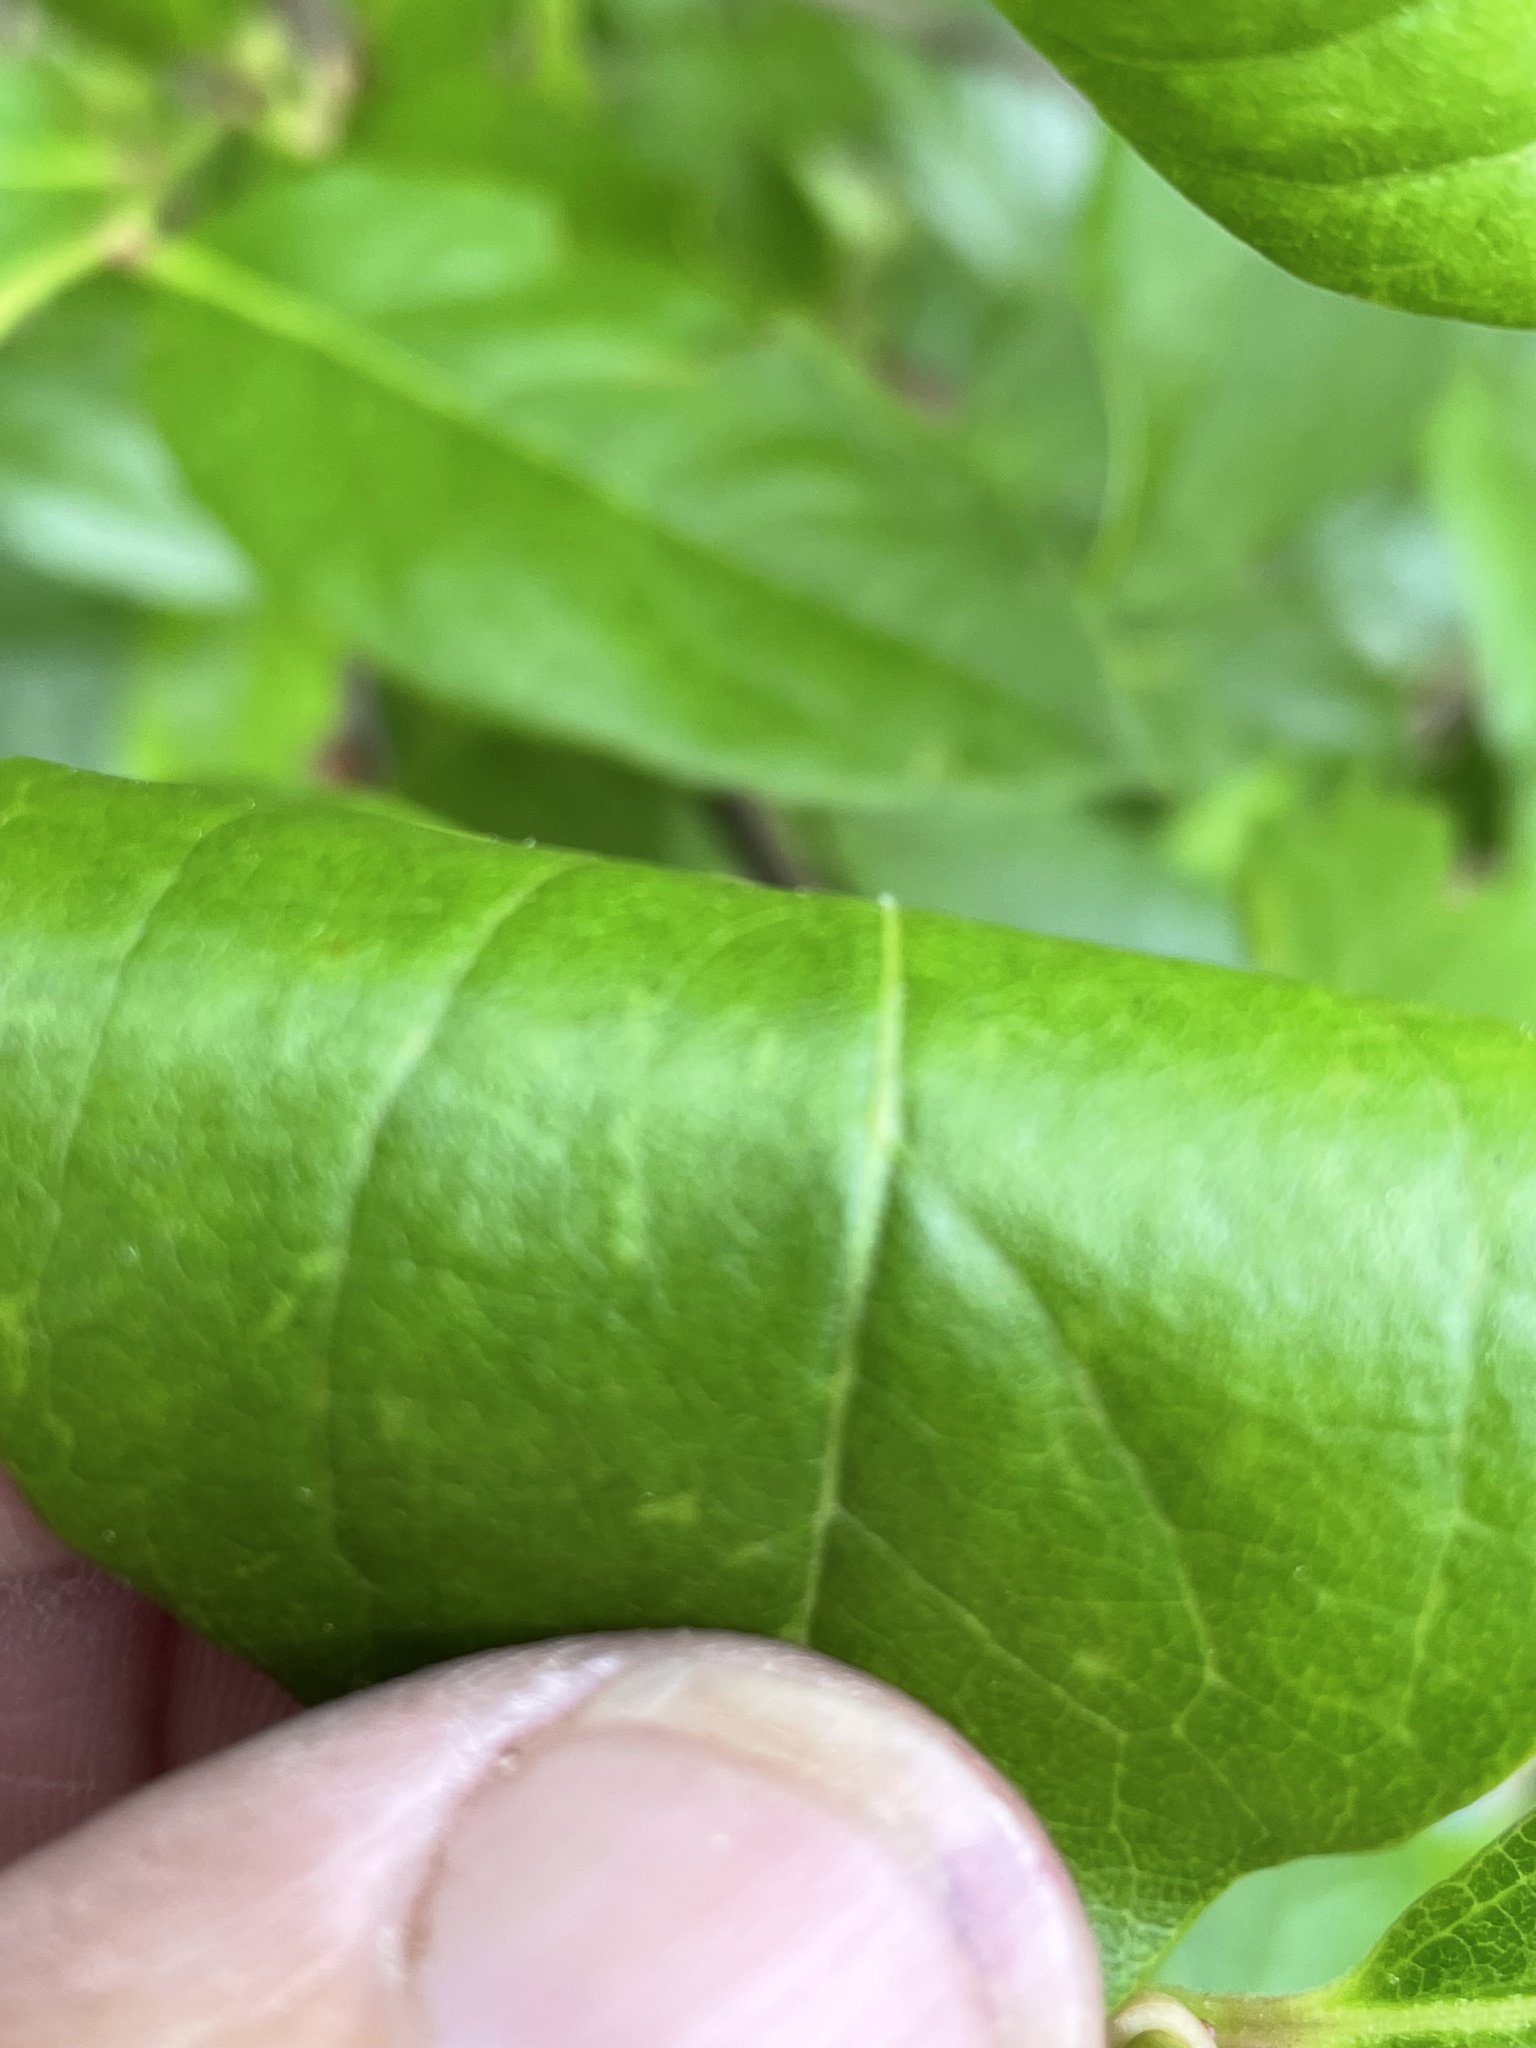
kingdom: Plantae
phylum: Tracheophyta
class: Magnoliopsida
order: Ericales
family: Ericaceae
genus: Lyonia
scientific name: Lyonia mariana
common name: Staggerbush
